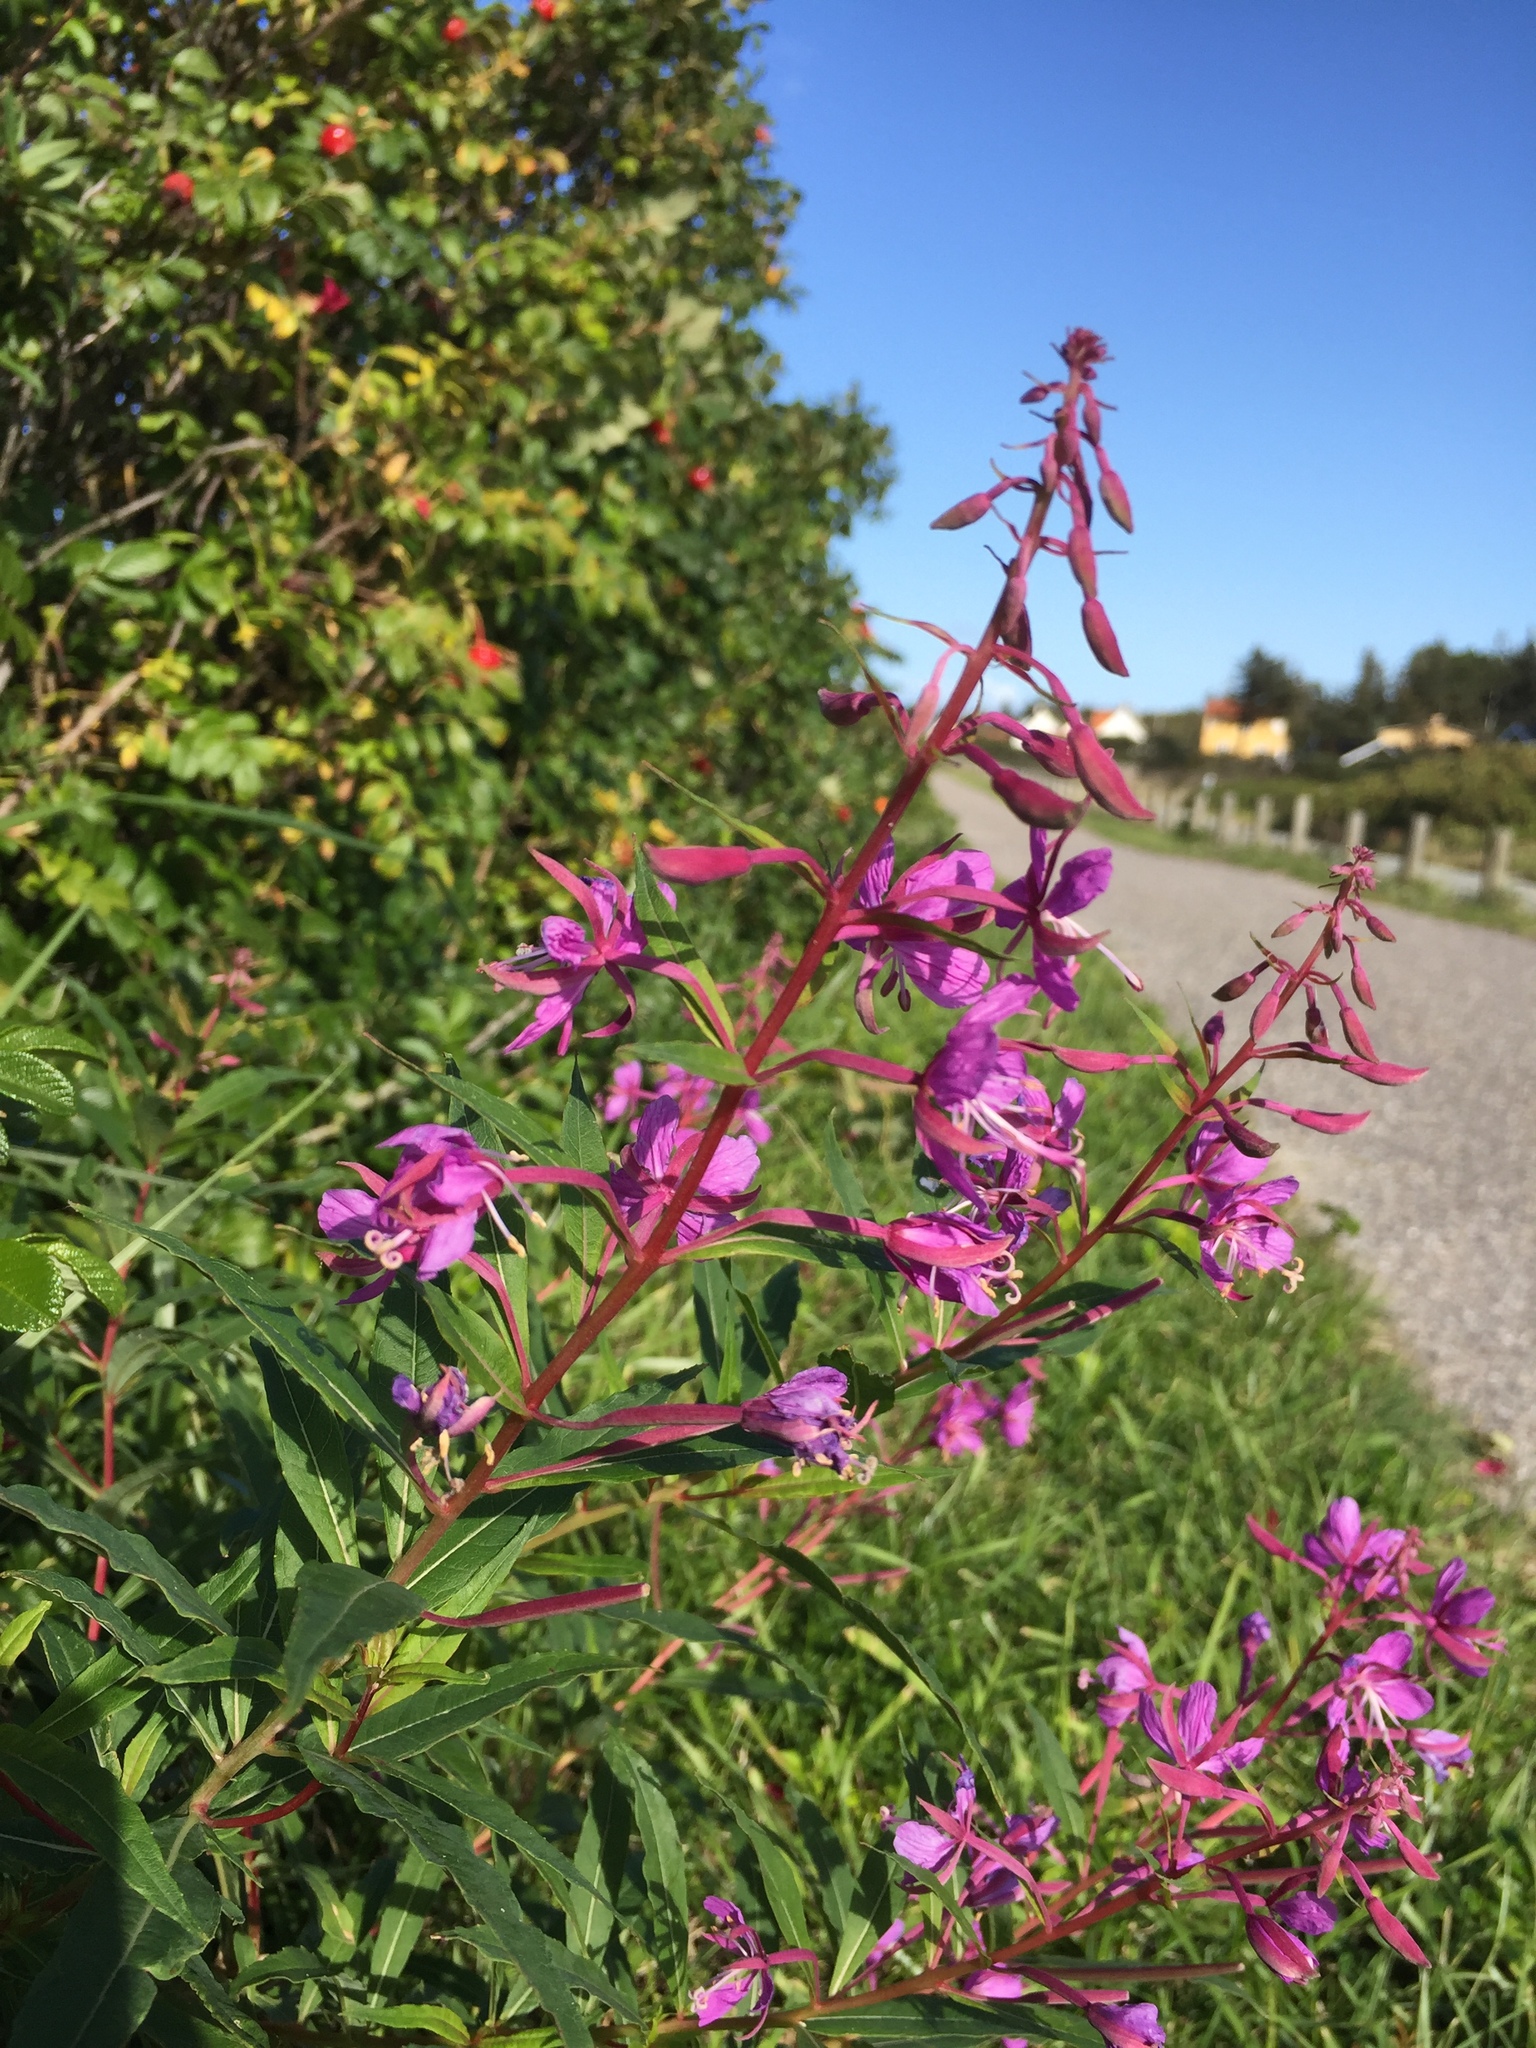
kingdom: Plantae
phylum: Tracheophyta
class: Magnoliopsida
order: Myrtales
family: Onagraceae
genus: Chamaenerion
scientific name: Chamaenerion angustifolium
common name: Fireweed
